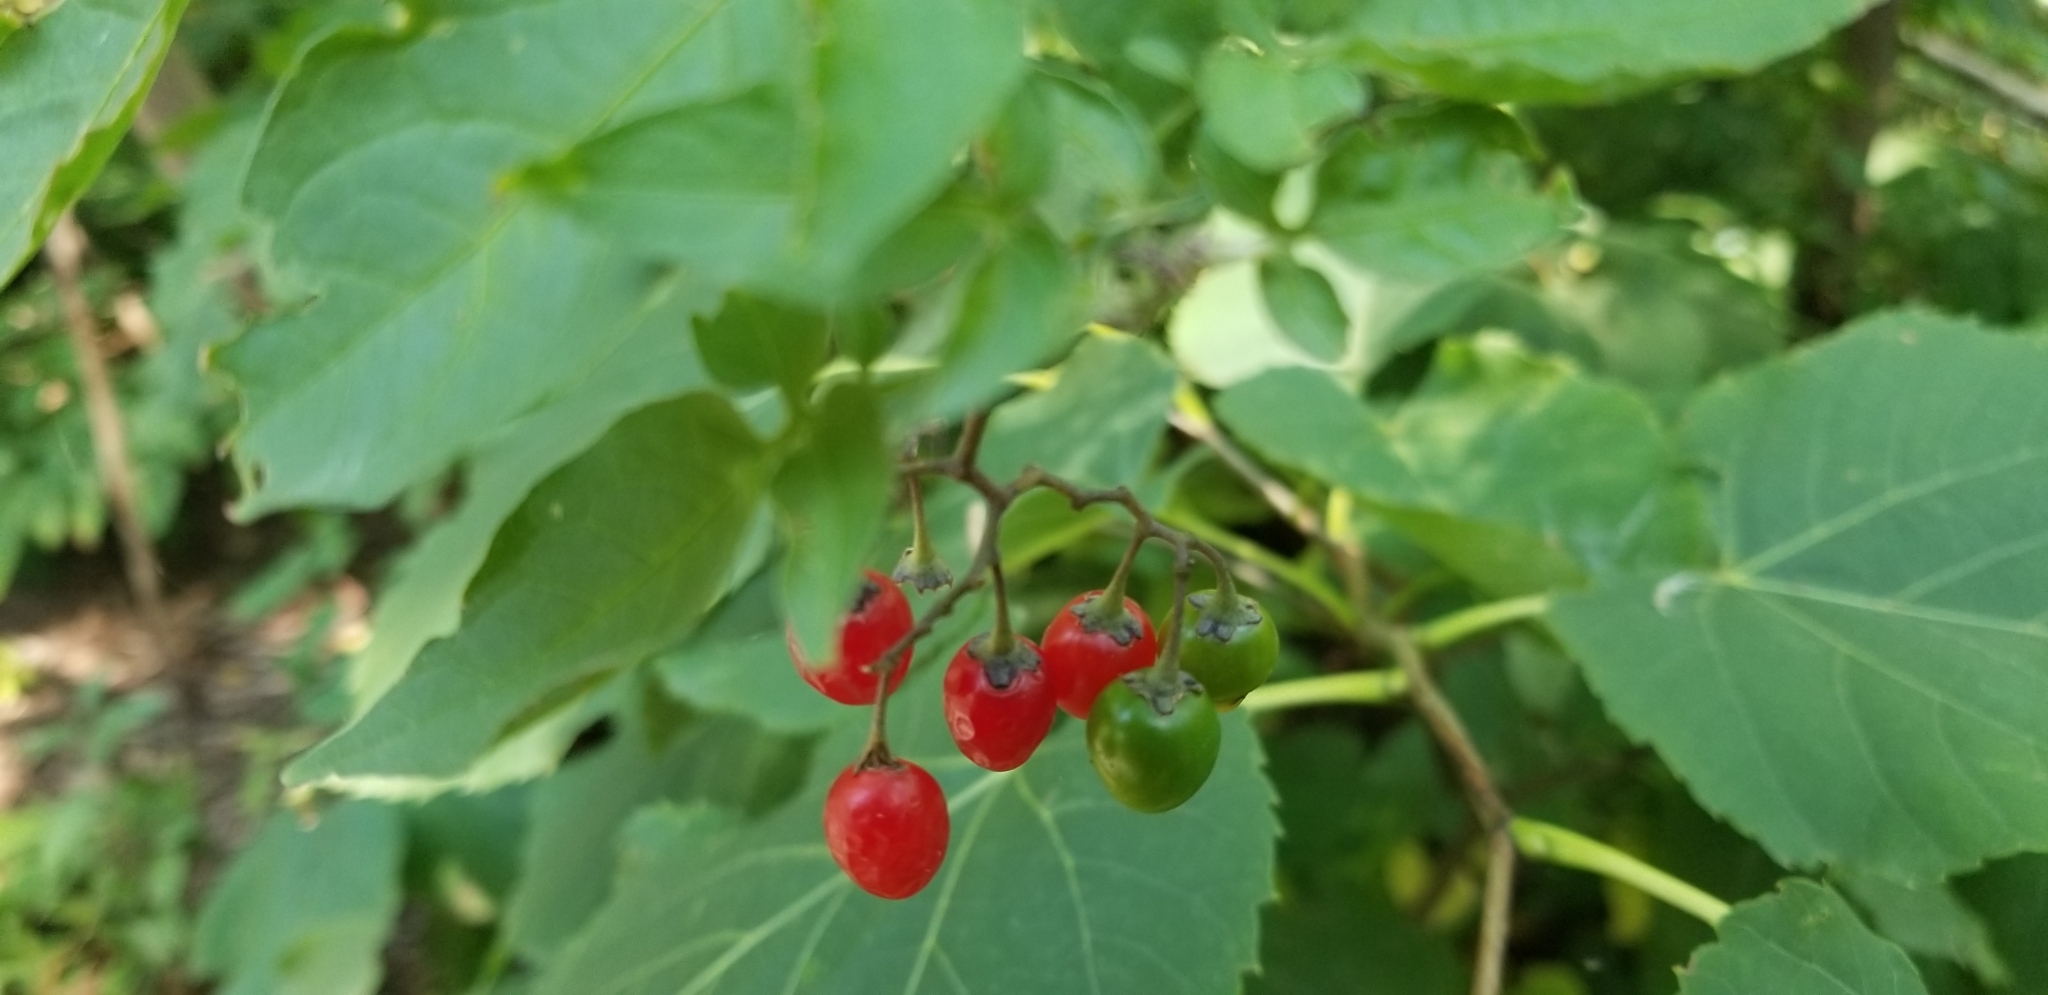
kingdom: Plantae
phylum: Tracheophyta
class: Magnoliopsida
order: Solanales
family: Solanaceae
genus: Solanum
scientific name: Solanum dulcamara
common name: Climbing nightshade
